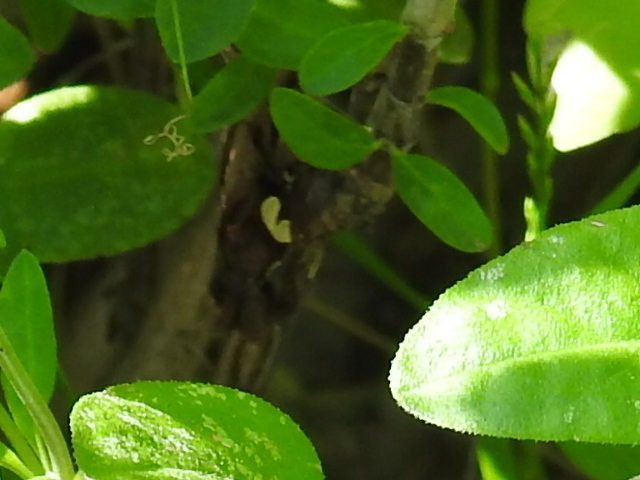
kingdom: Animalia
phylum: Arthropoda
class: Insecta
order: Lepidoptera
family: Noctuidae
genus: Megalographa
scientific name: Megalographa biloba
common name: Cutworm
